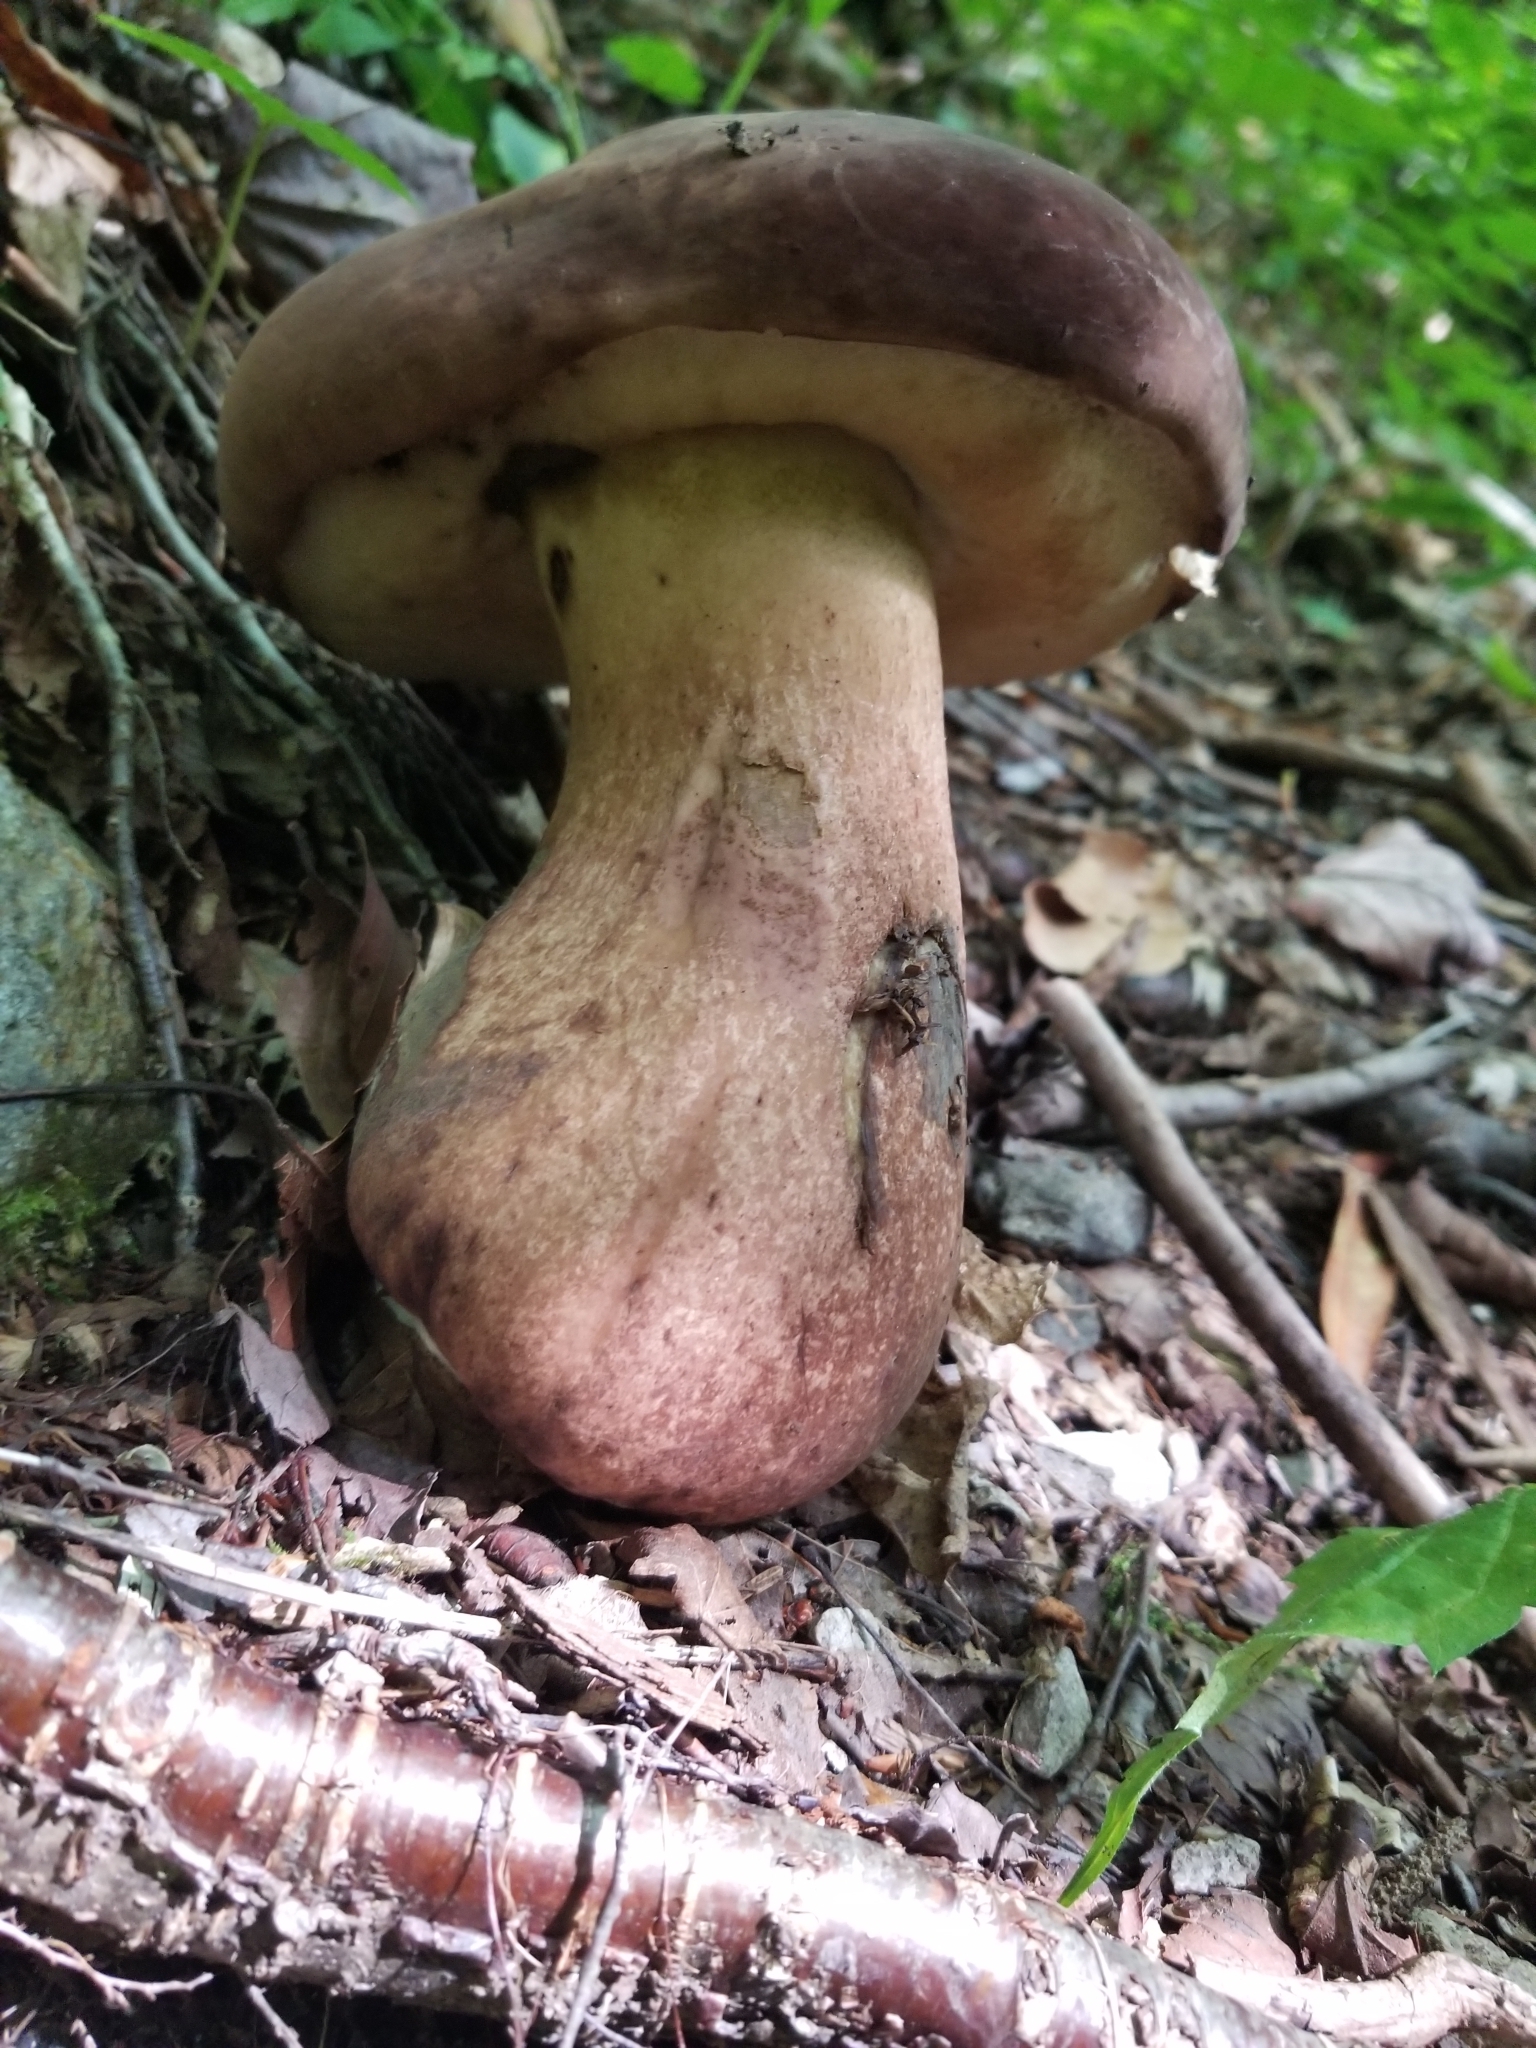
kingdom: Fungi
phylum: Basidiomycota
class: Agaricomycetes
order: Boletales
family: Boletaceae
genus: Tylopilus
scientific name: Tylopilus rubrobrunneus
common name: Reddish brown bitter bolete
